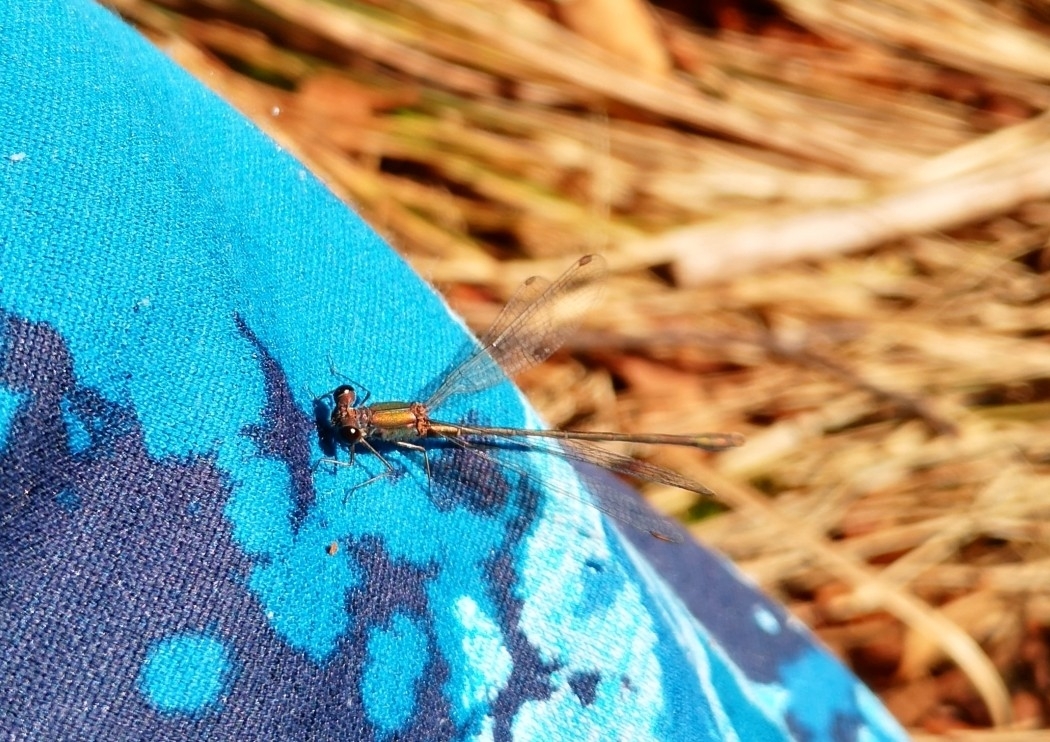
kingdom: Animalia
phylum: Arthropoda
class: Insecta
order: Odonata
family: Lestidae
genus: Chalcolestes
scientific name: Chalcolestes viridis
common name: Green emerald damselfly
